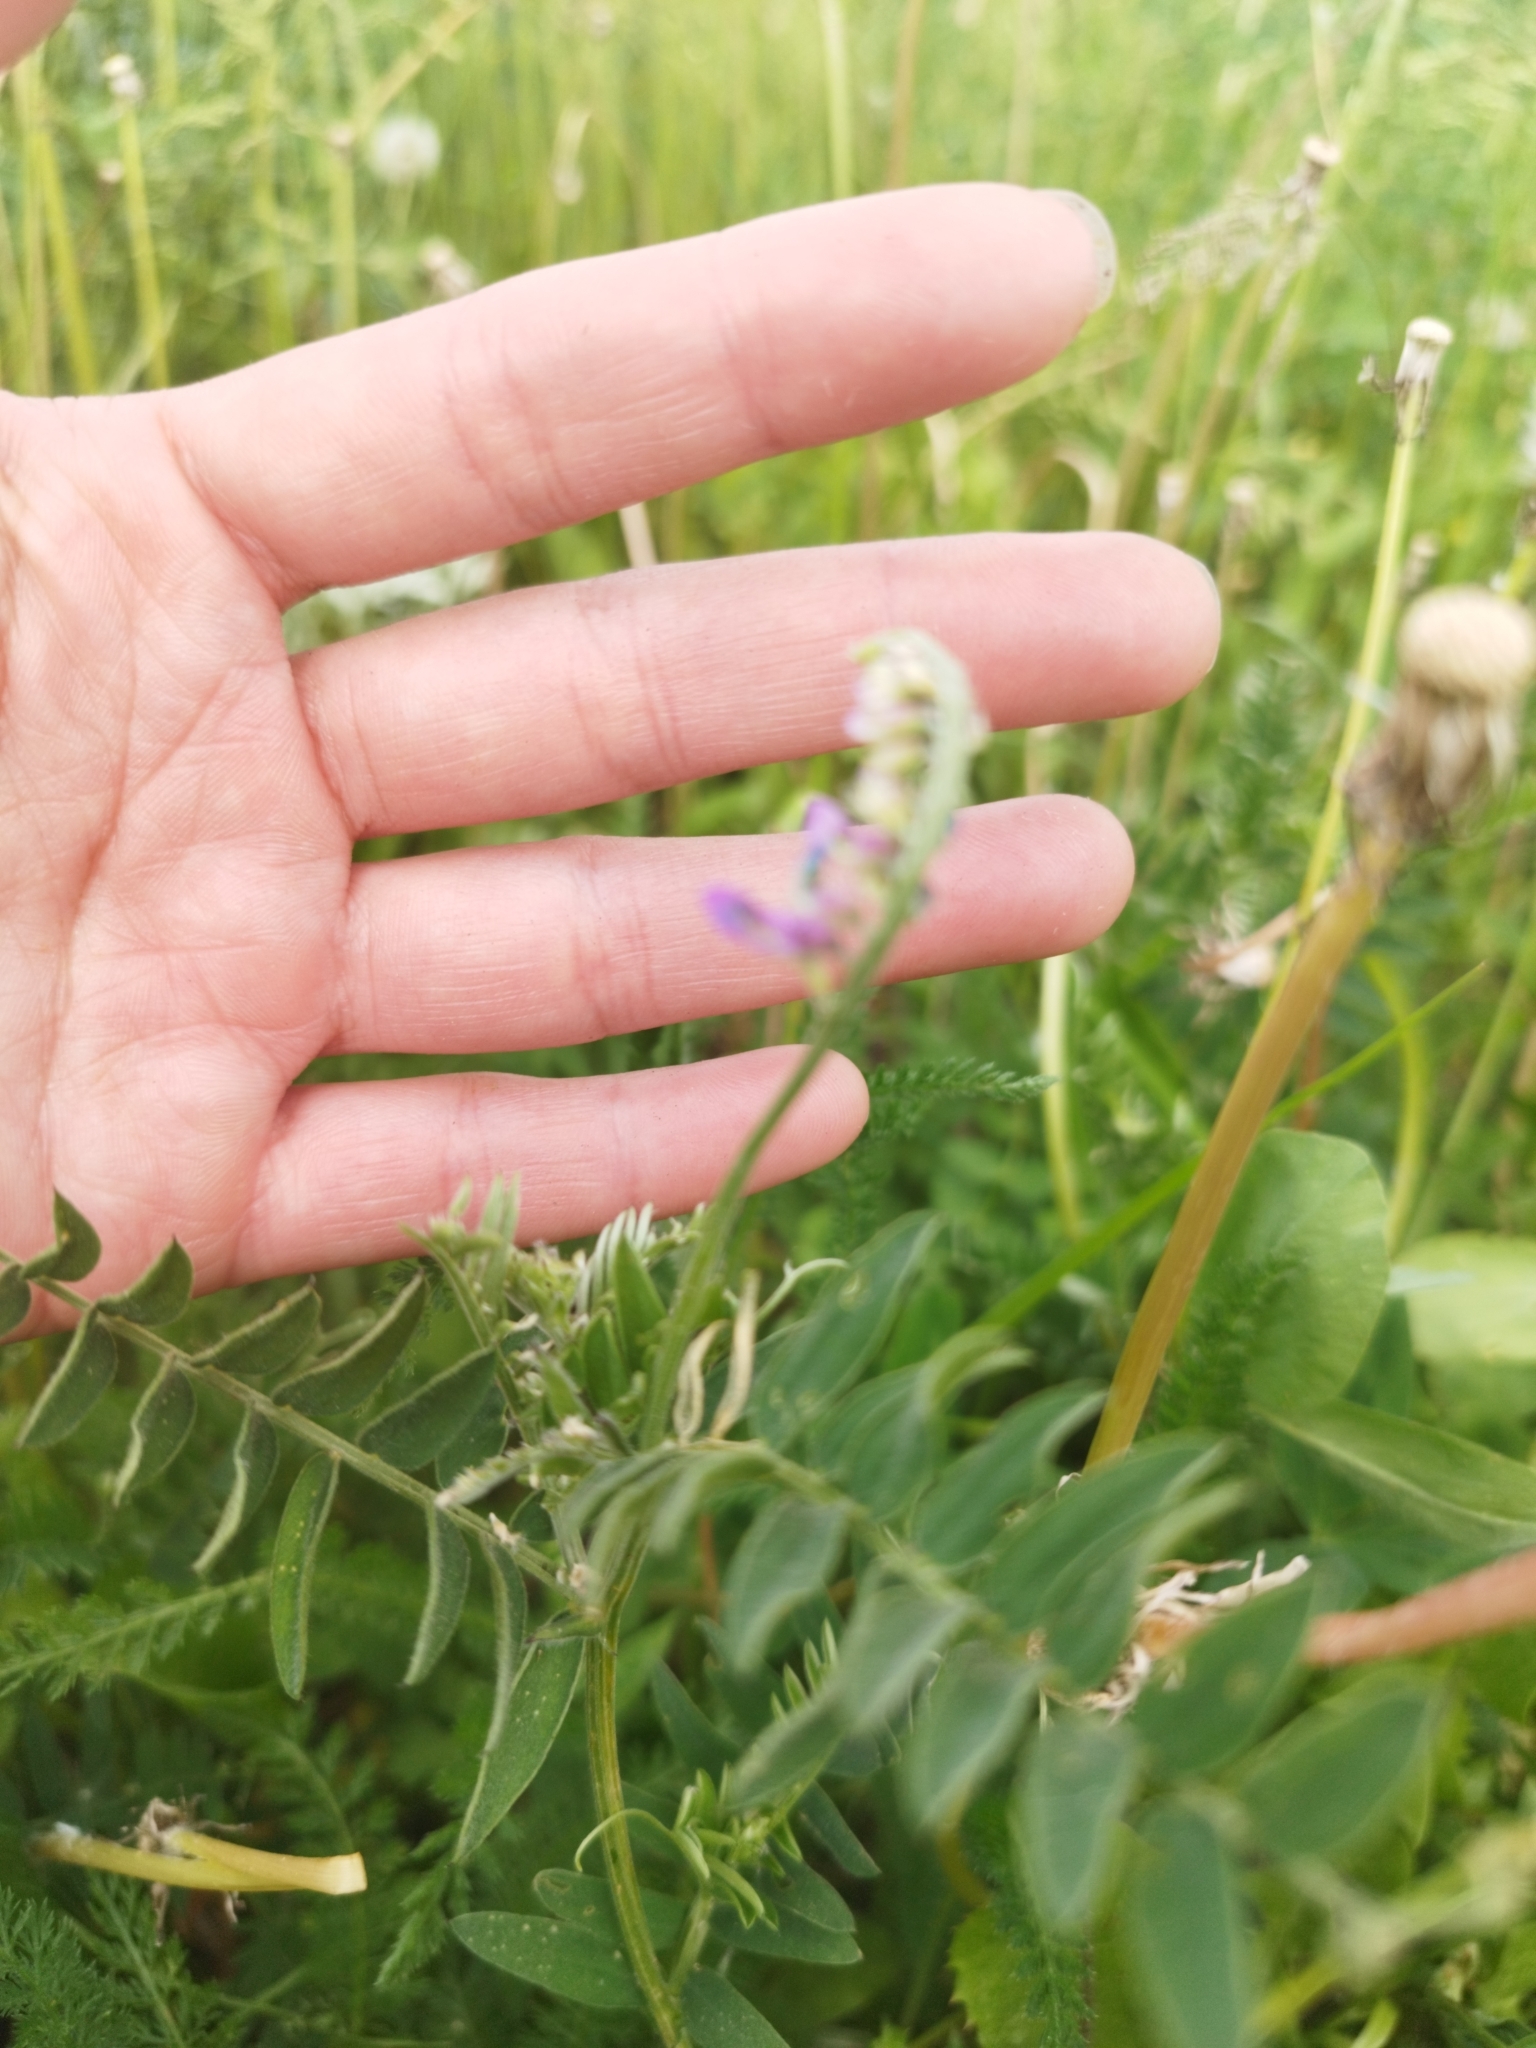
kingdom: Plantae
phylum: Tracheophyta
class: Magnoliopsida
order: Fabales
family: Fabaceae
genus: Vicia
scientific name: Vicia cracca
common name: Bird vetch
